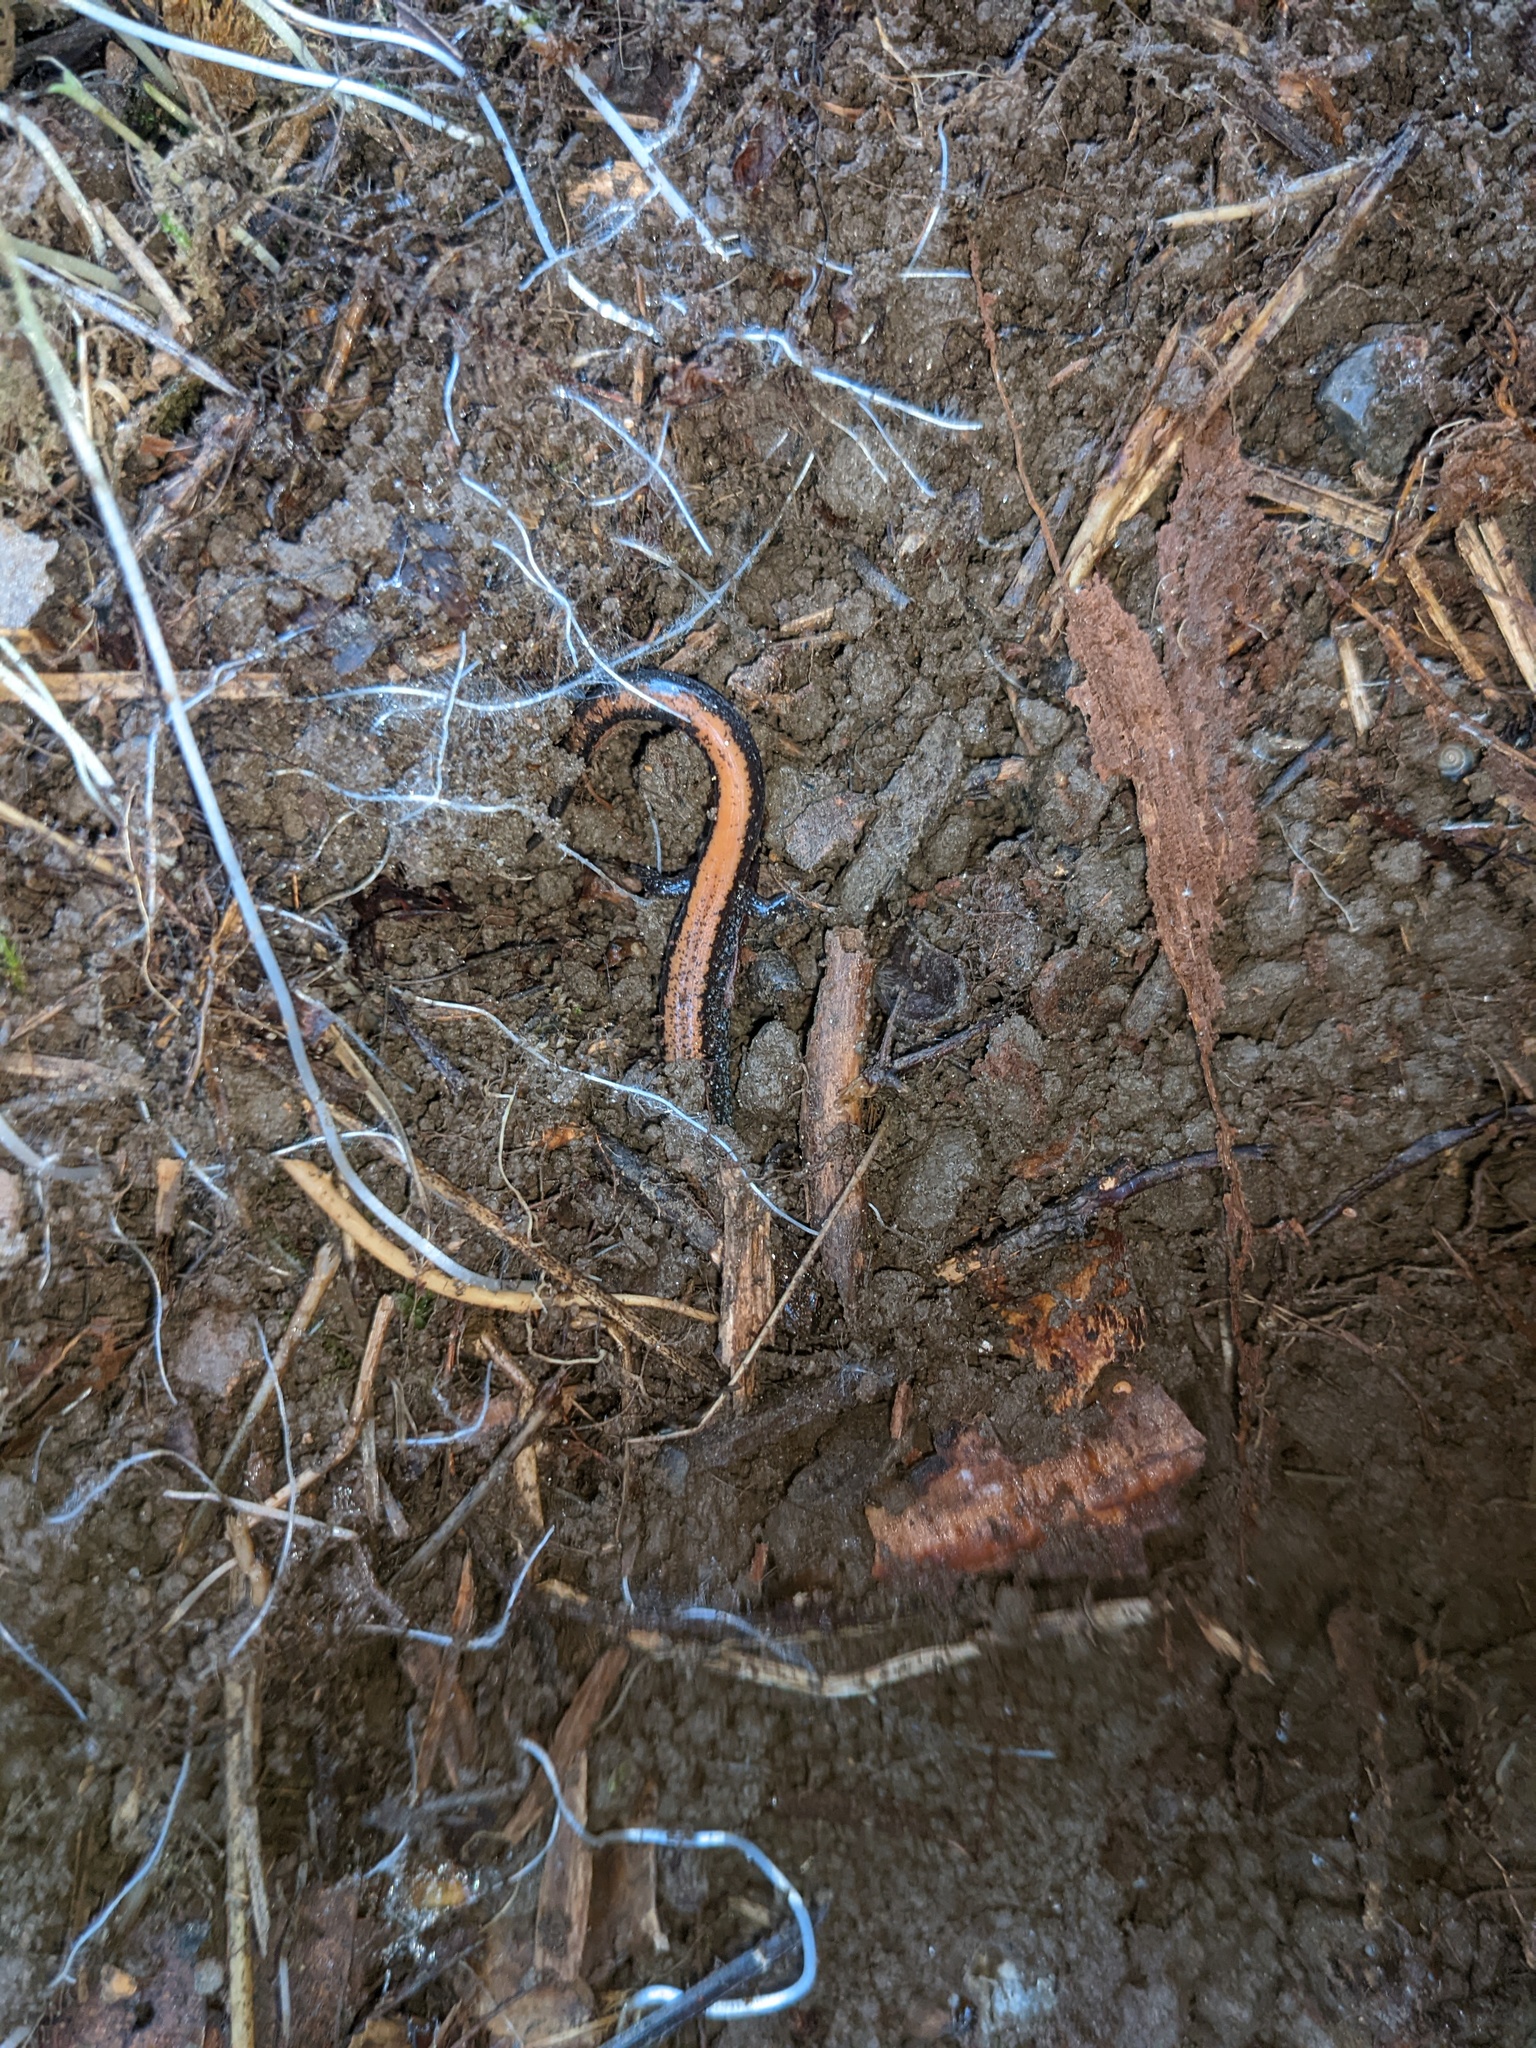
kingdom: Animalia
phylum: Chordata
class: Amphibia
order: Caudata
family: Plethodontidae
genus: Plethodon
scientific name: Plethodon cinereus
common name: Redback salamander
